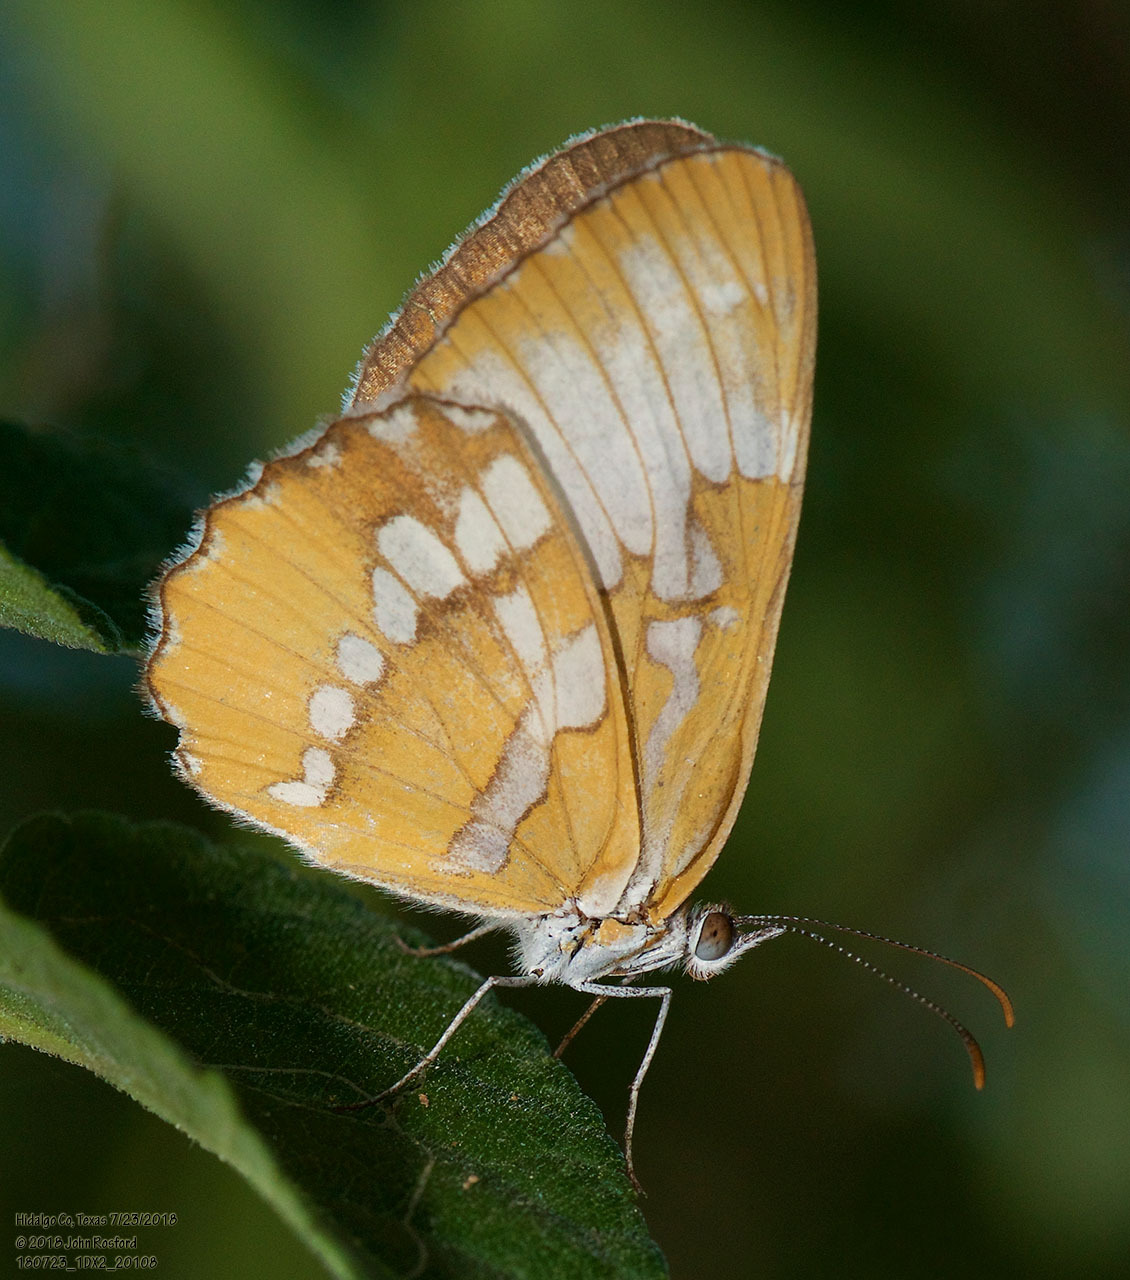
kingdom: Animalia
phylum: Arthropoda
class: Insecta
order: Lepidoptera
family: Nymphalidae
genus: Mestra
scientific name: Mestra amymone
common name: Common mestra
